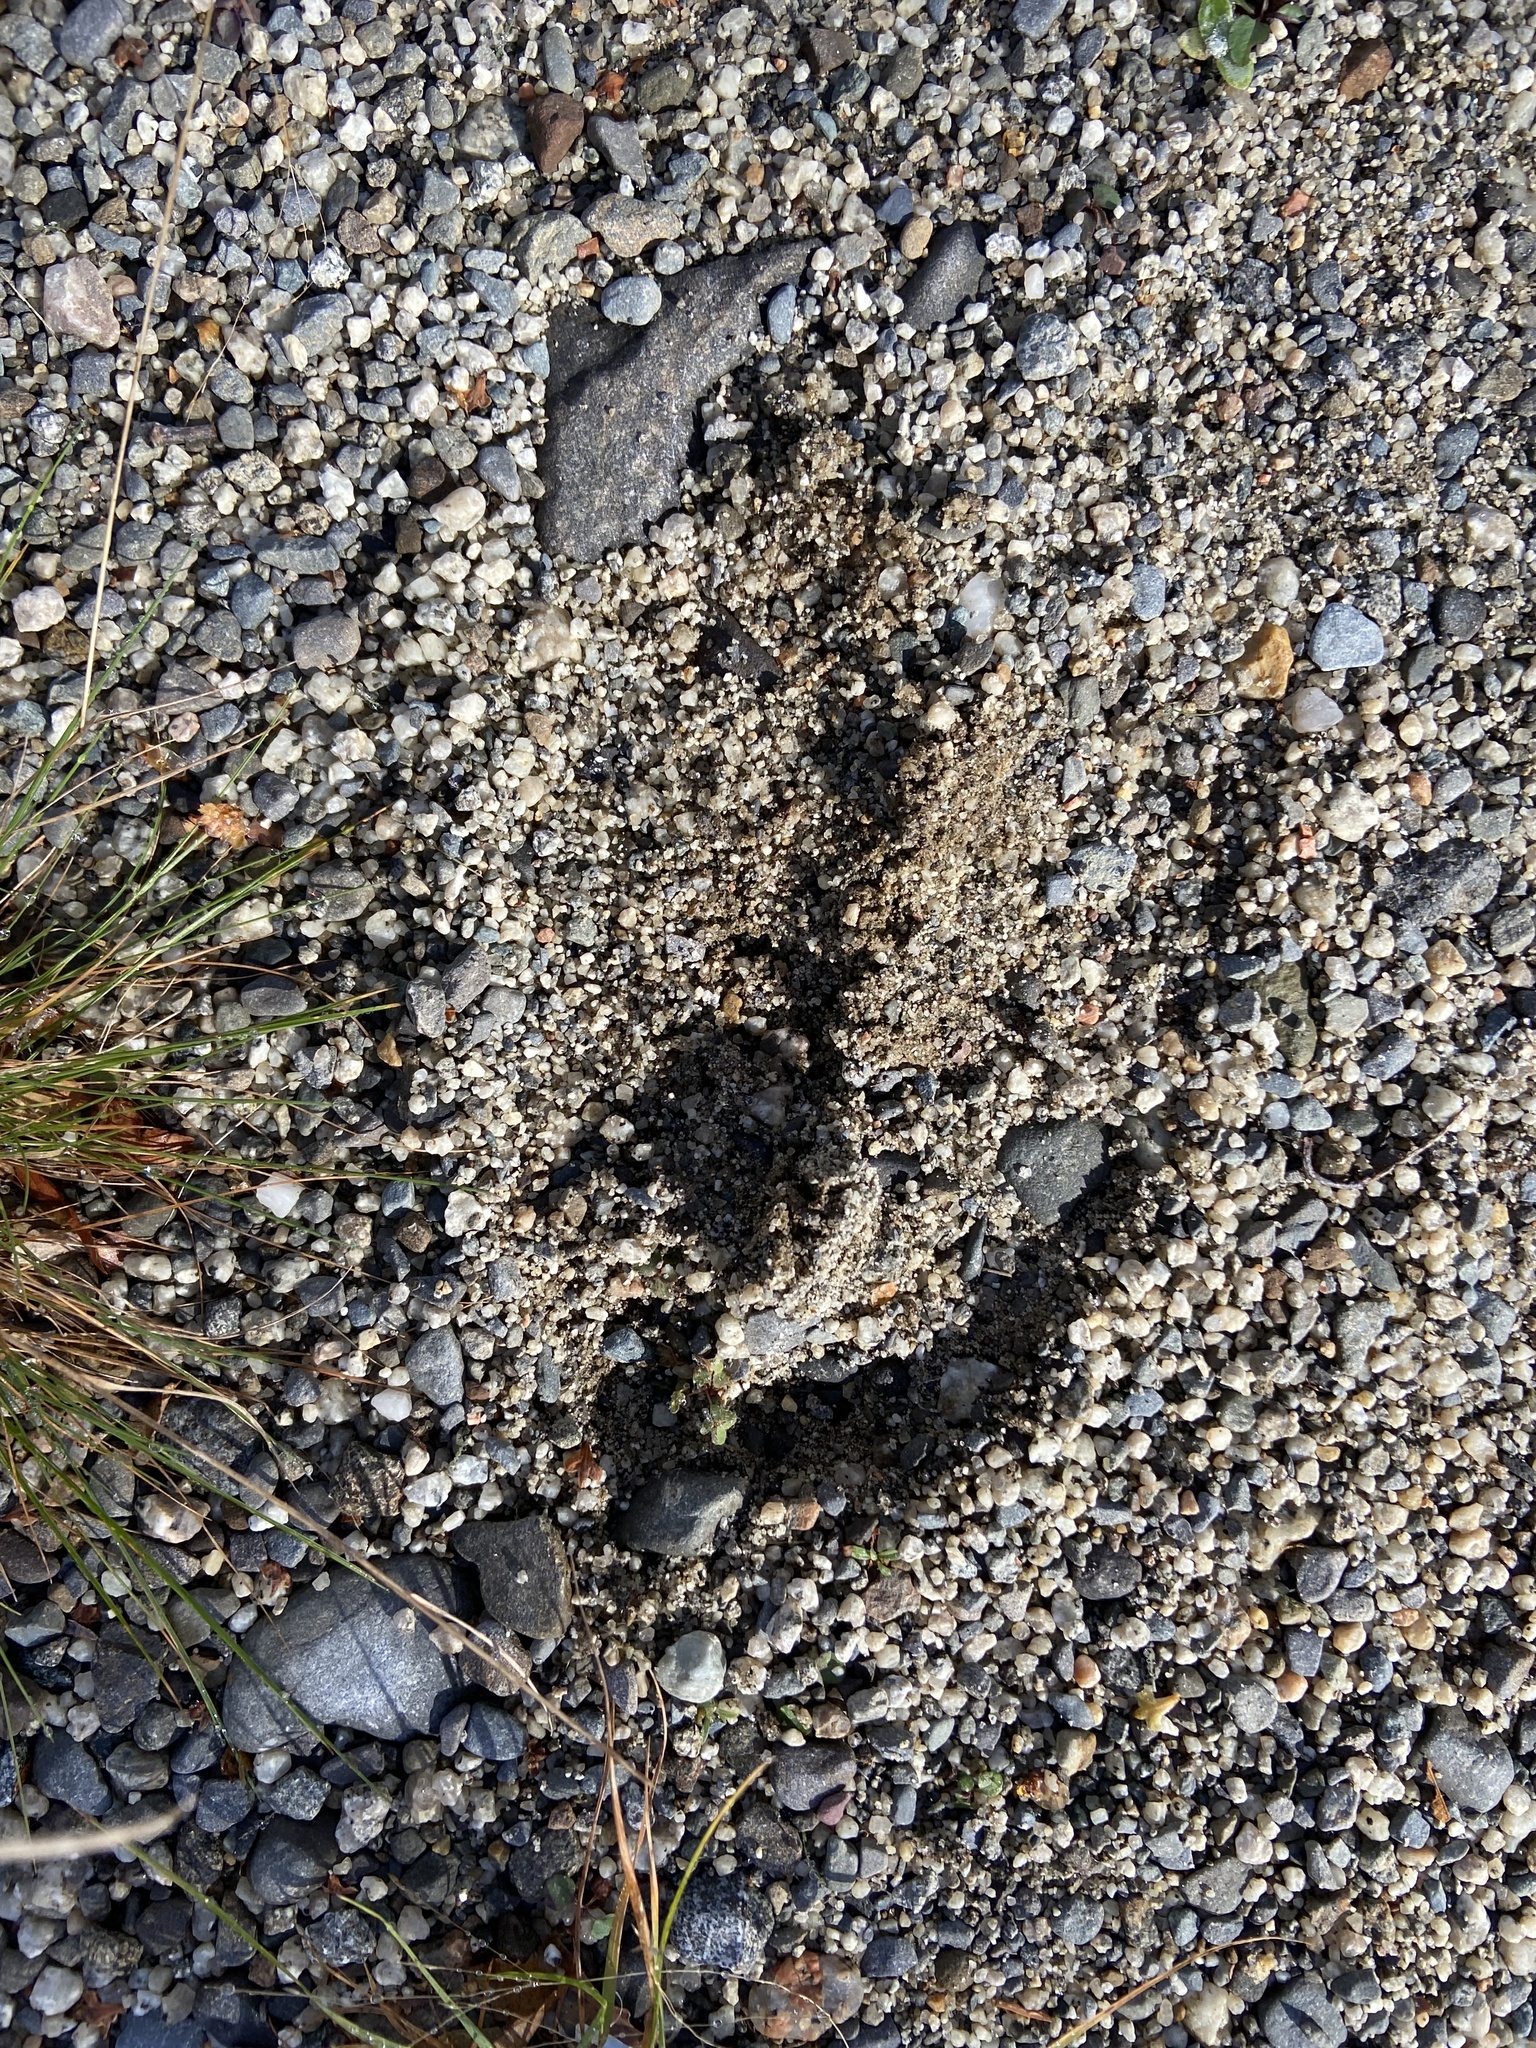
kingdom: Animalia
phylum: Chordata
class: Mammalia
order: Artiodactyla
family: Cervidae
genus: Alces
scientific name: Alces alces
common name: Moose
